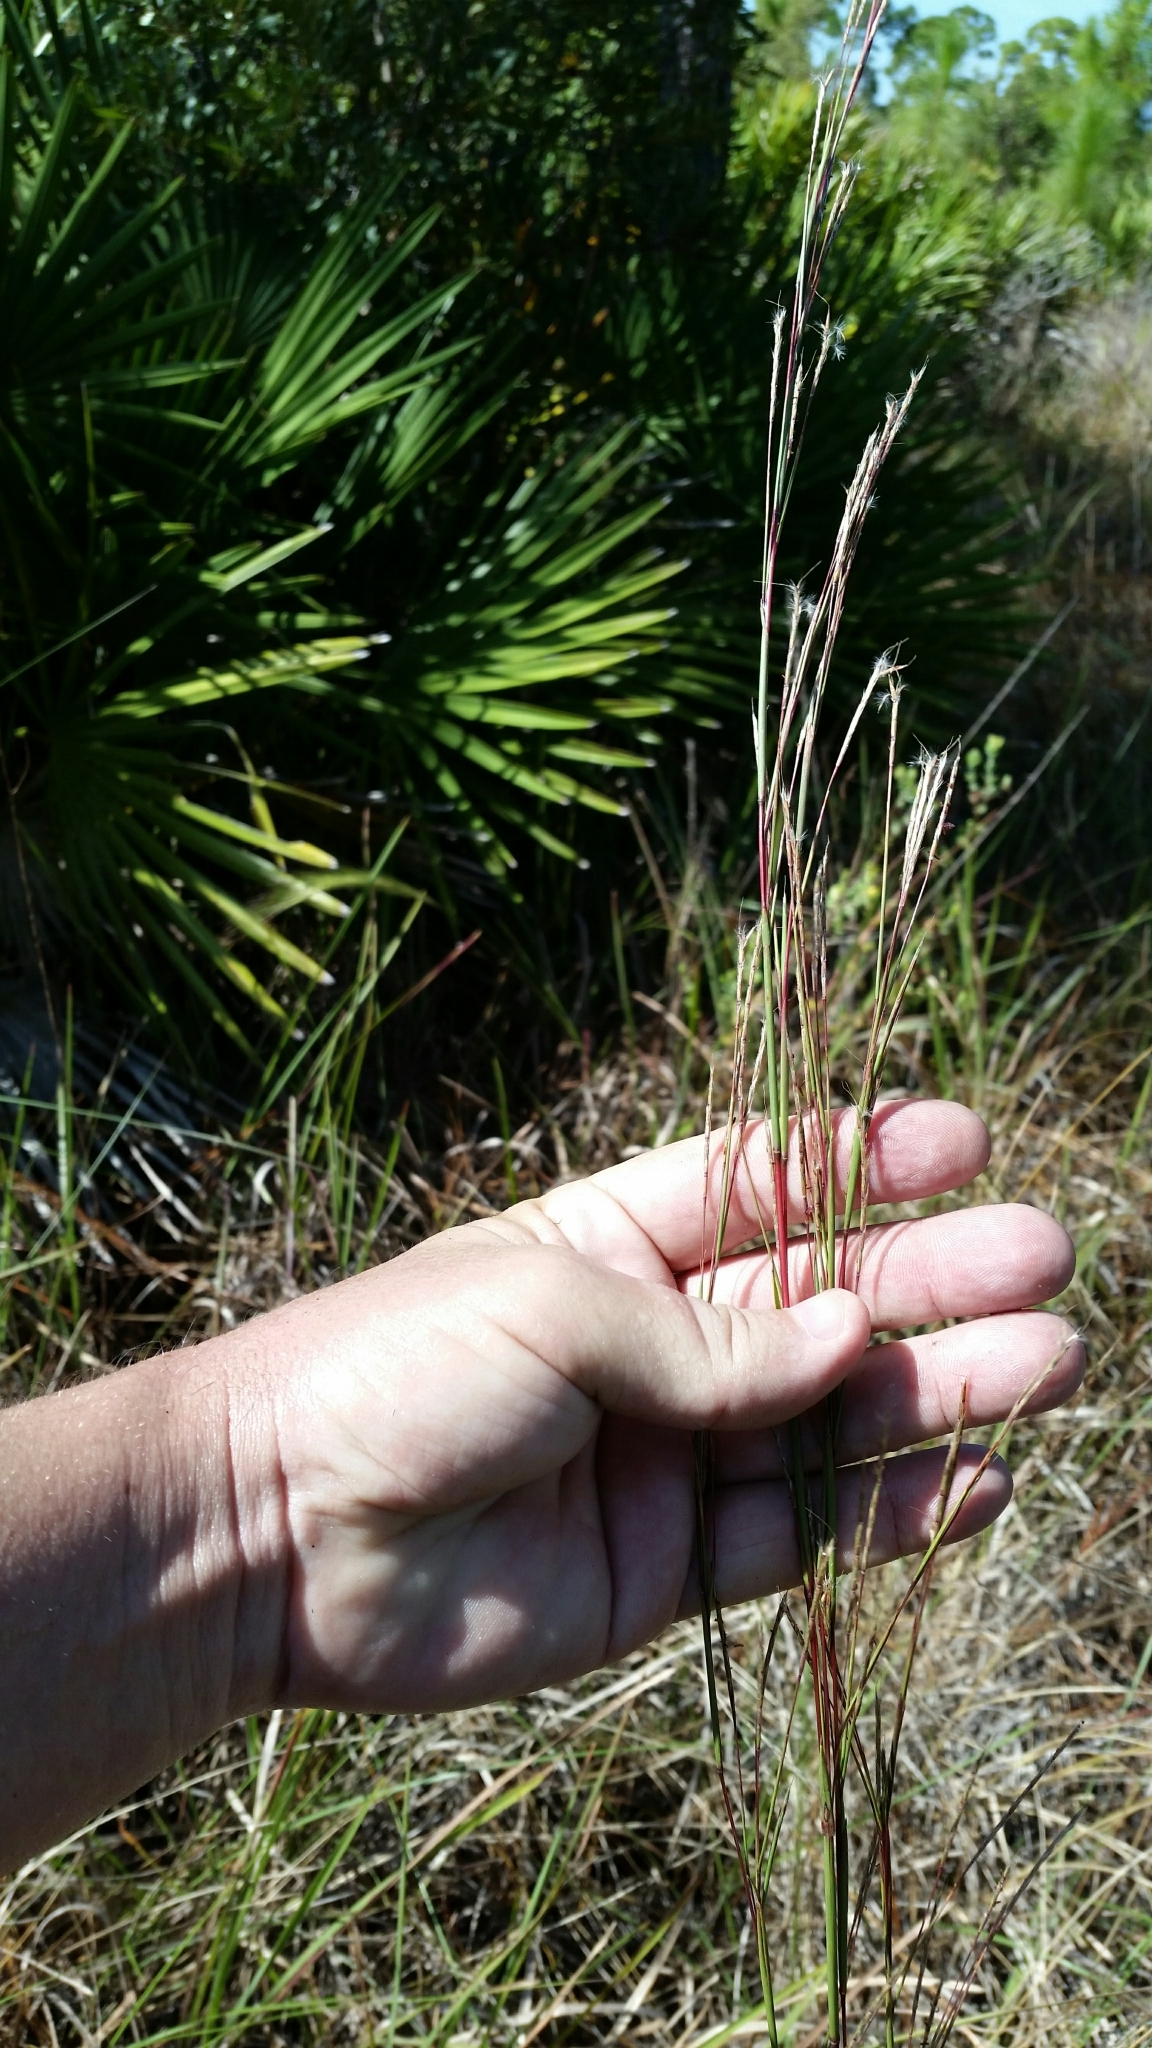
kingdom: Plantae
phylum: Tracheophyta
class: Liliopsida
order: Poales
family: Poaceae
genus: Andropogon
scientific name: Andropogon stolonifer
